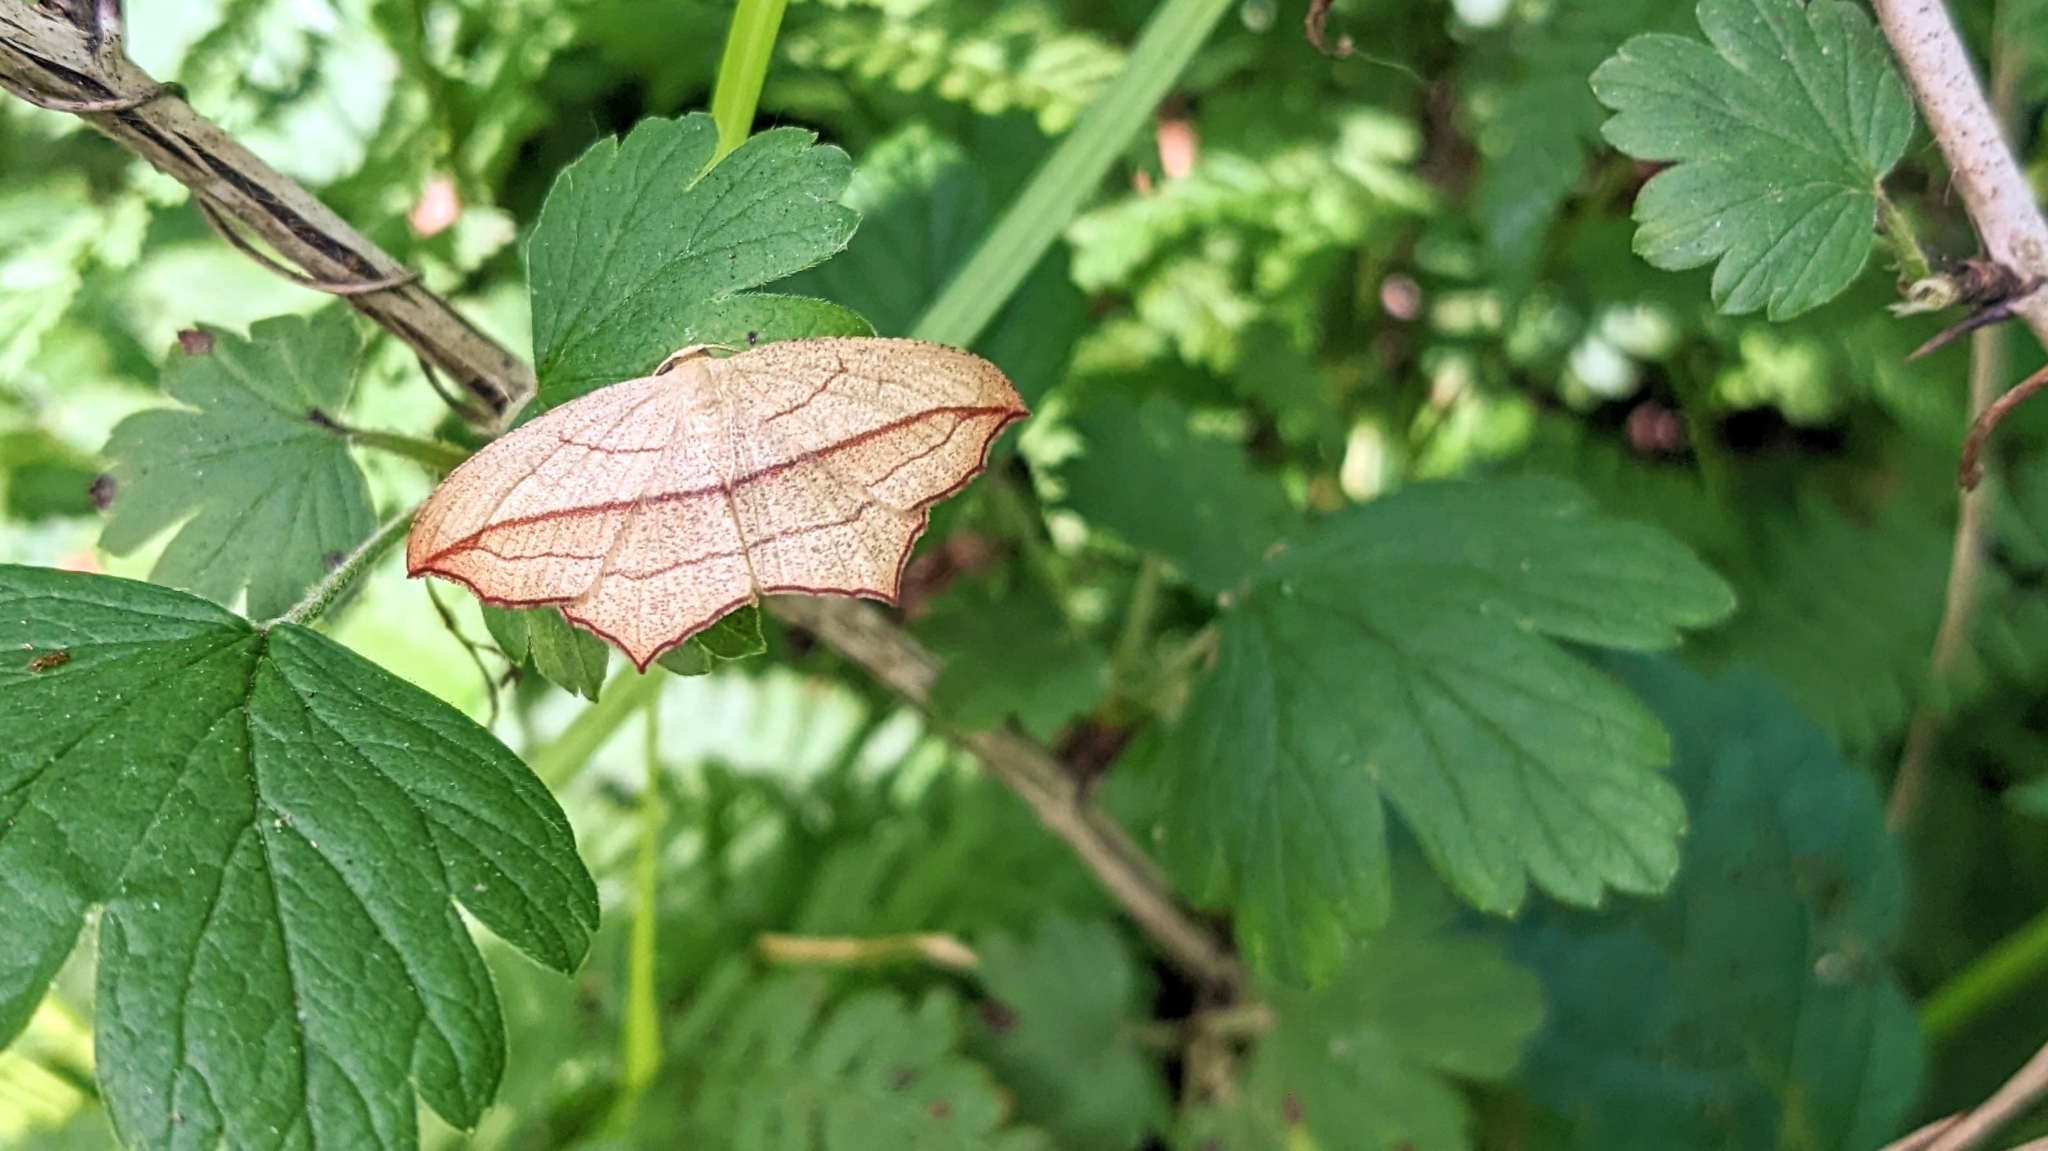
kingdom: Animalia
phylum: Arthropoda
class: Insecta
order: Lepidoptera
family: Geometridae
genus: Timandra
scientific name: Timandra amaturaria
